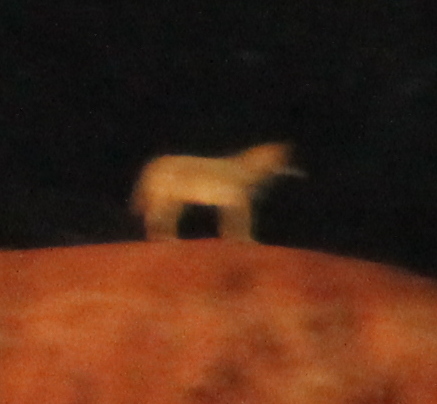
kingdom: Animalia
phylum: Chordata
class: Mammalia
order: Carnivora
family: Canidae
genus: Canis
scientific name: Canis latrans
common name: Coyote
